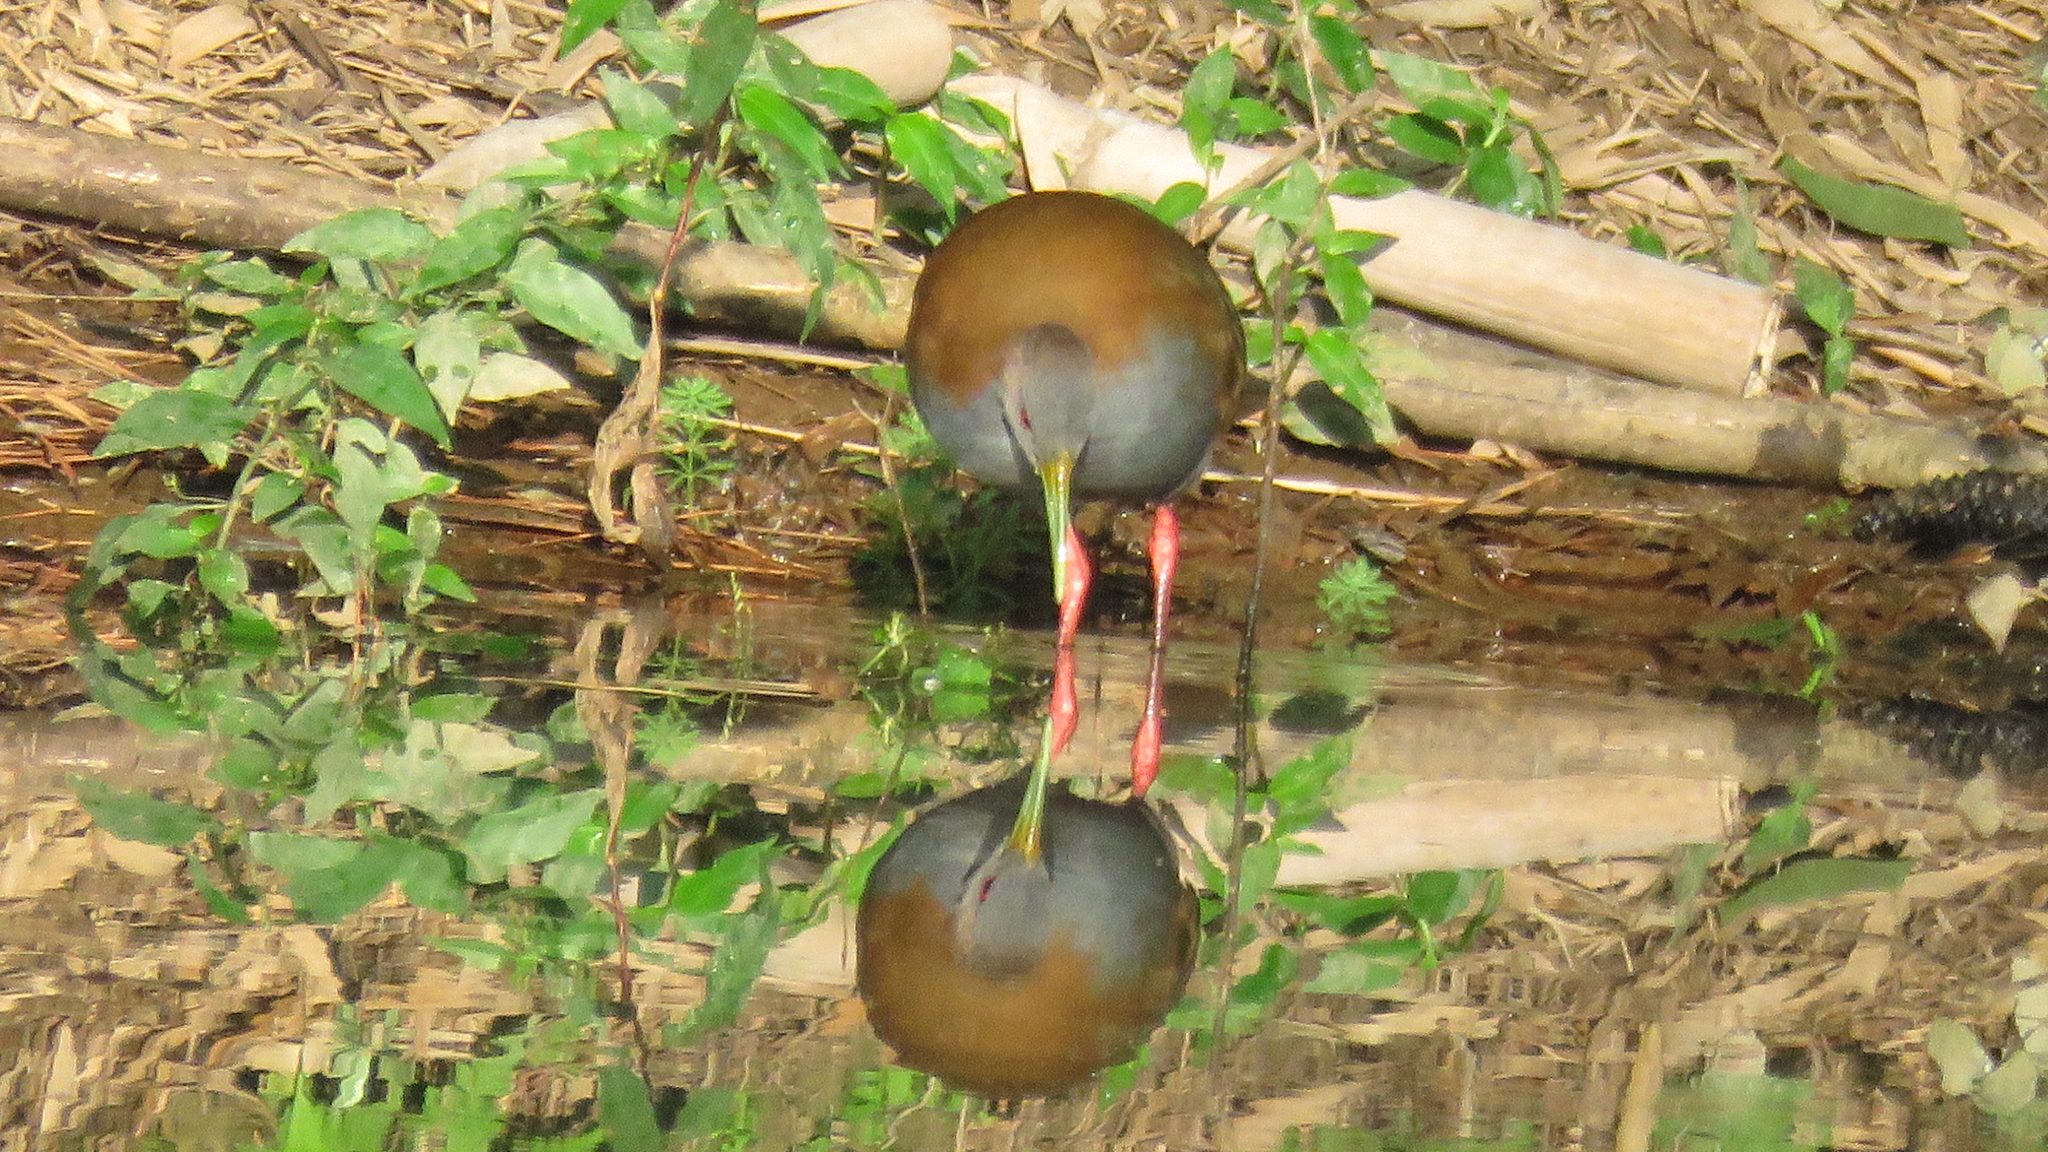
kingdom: Animalia
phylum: Chordata
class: Aves
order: Gruiformes
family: Rallidae
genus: Aramides
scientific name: Aramides saracura
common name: Slaty-breasted wood rail
